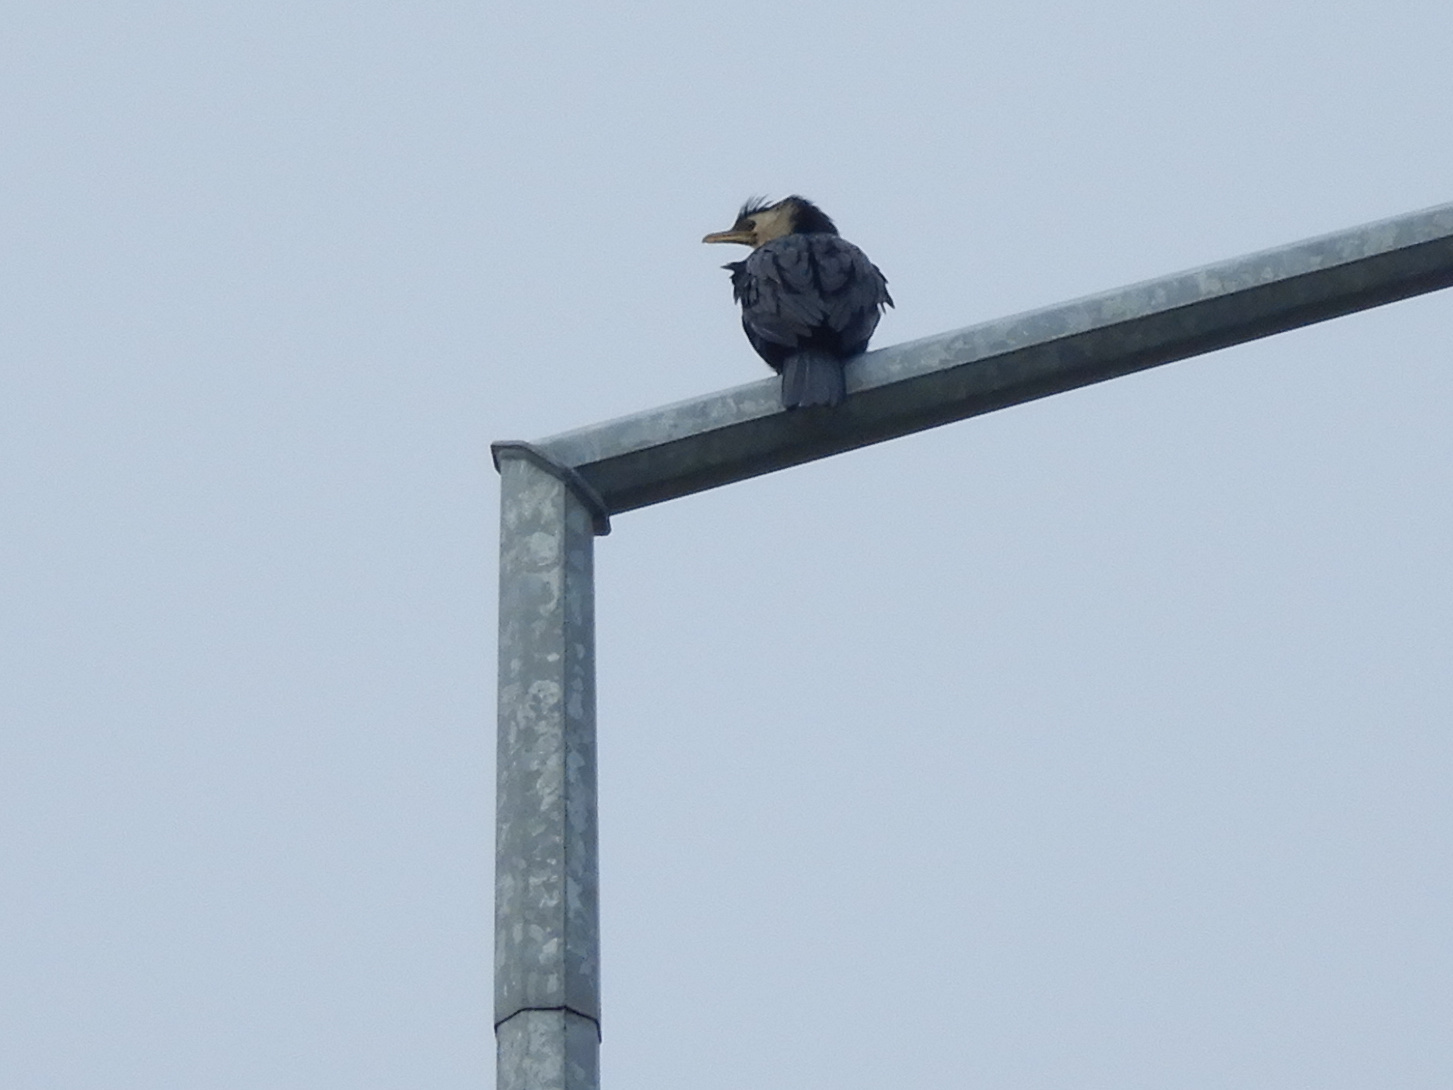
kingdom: Animalia
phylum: Chordata
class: Aves
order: Suliformes
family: Phalacrocoracidae
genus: Microcarbo
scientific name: Microcarbo melanoleucos
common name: Little pied cormorant
